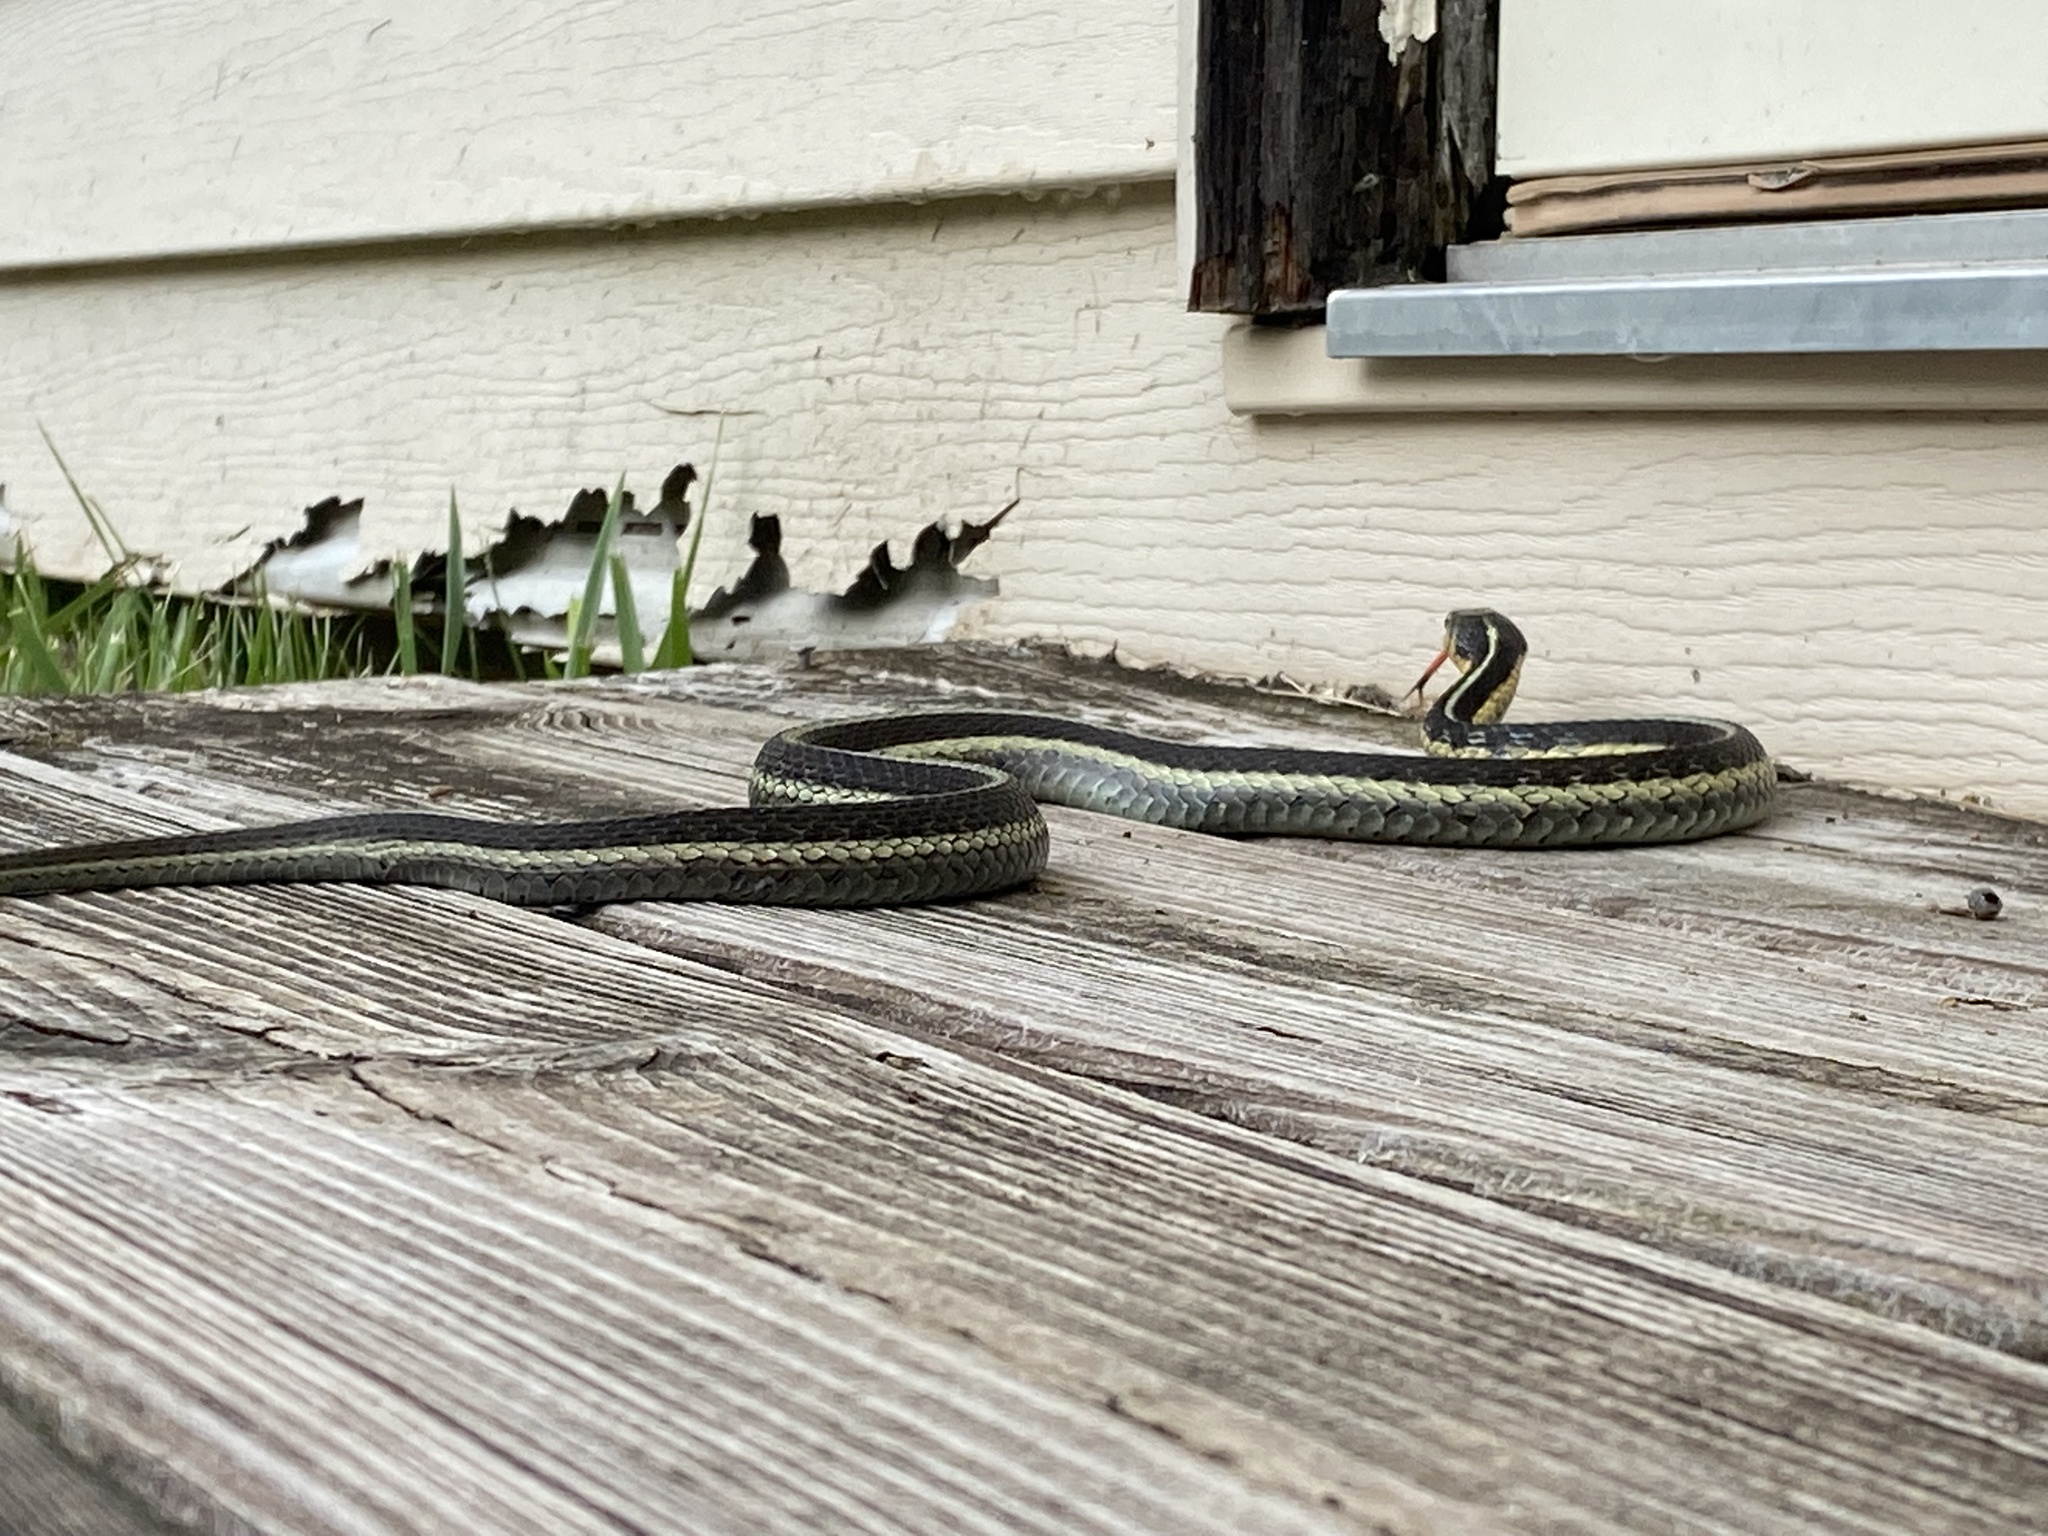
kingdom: Animalia
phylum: Chordata
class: Squamata
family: Colubridae
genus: Thamnophis
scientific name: Thamnophis sirtalis
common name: Common garter snake
